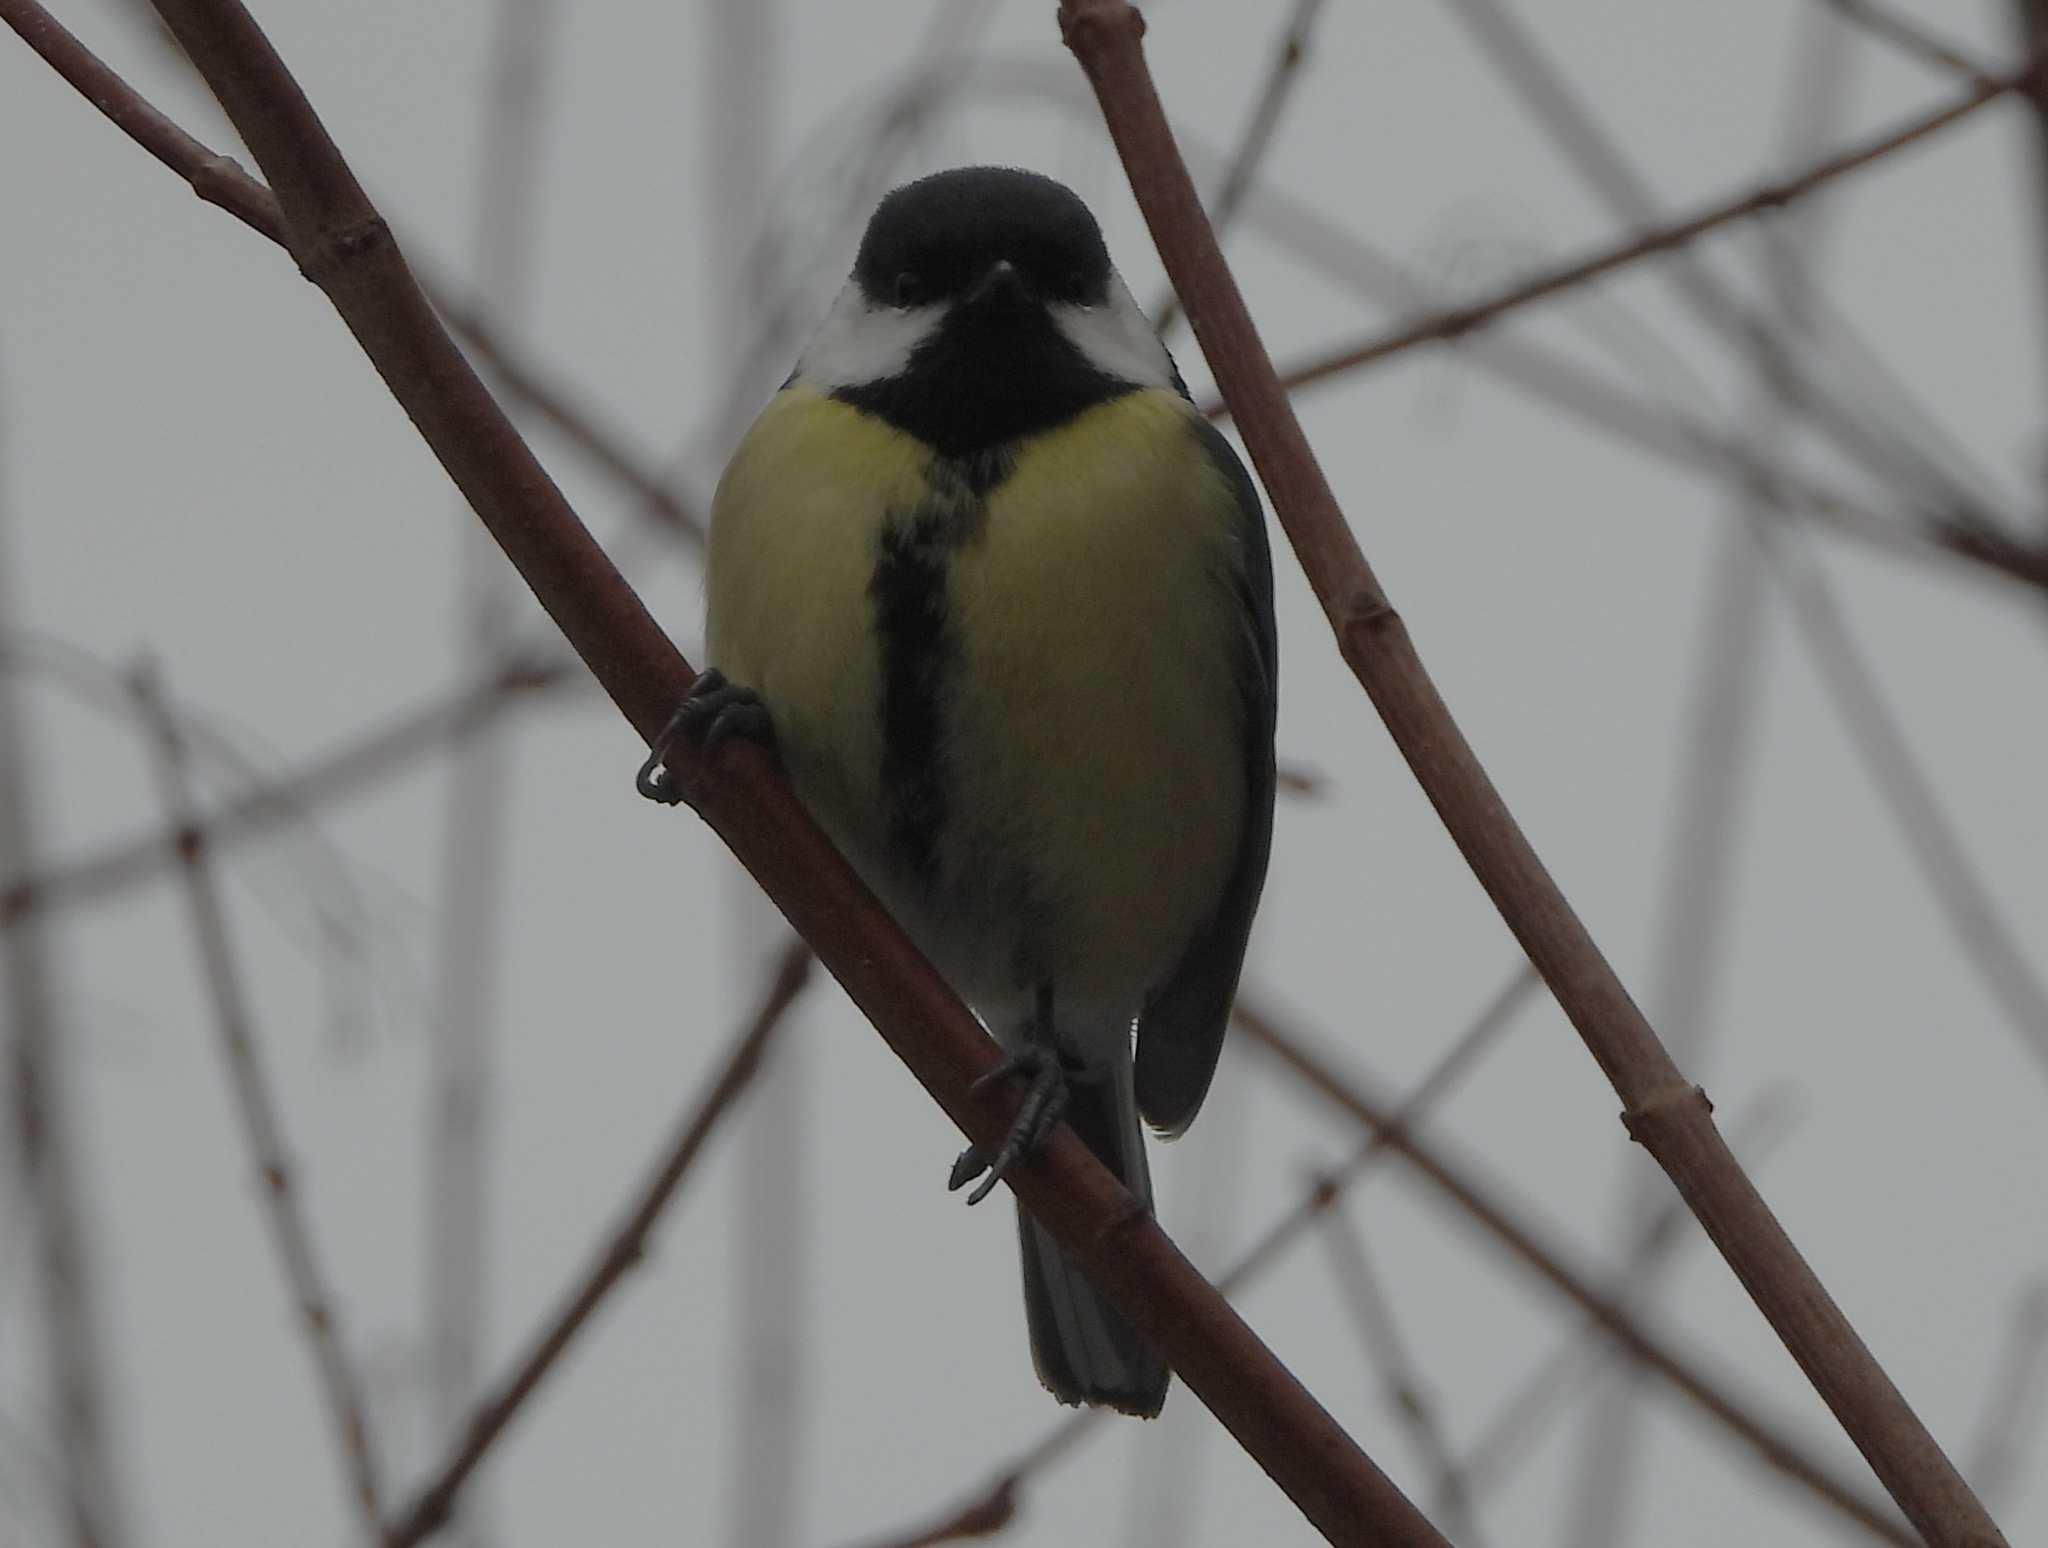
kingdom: Animalia
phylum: Chordata
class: Aves
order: Passeriformes
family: Paridae
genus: Parus
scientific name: Parus major
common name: Great tit
